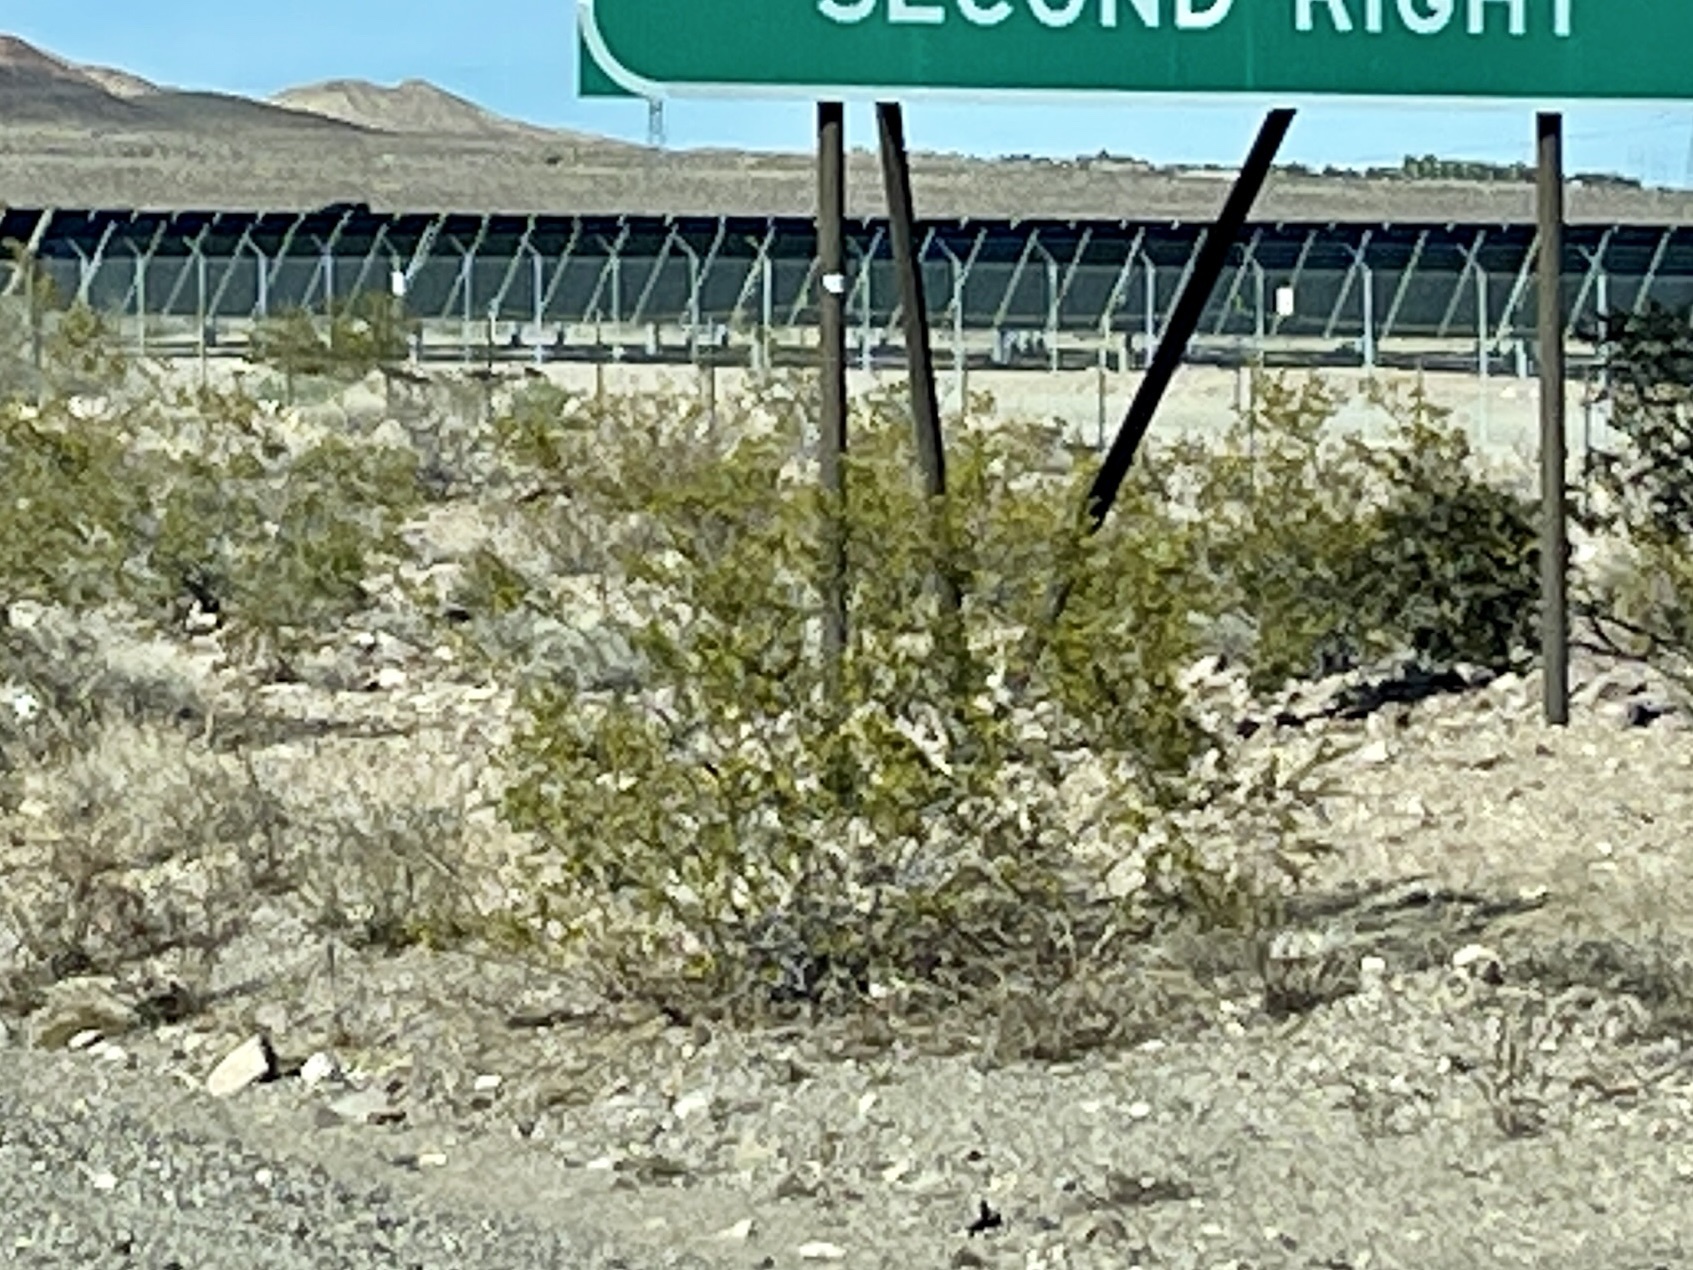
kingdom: Plantae
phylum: Tracheophyta
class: Magnoliopsida
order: Zygophyllales
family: Zygophyllaceae
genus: Larrea
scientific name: Larrea tridentata
